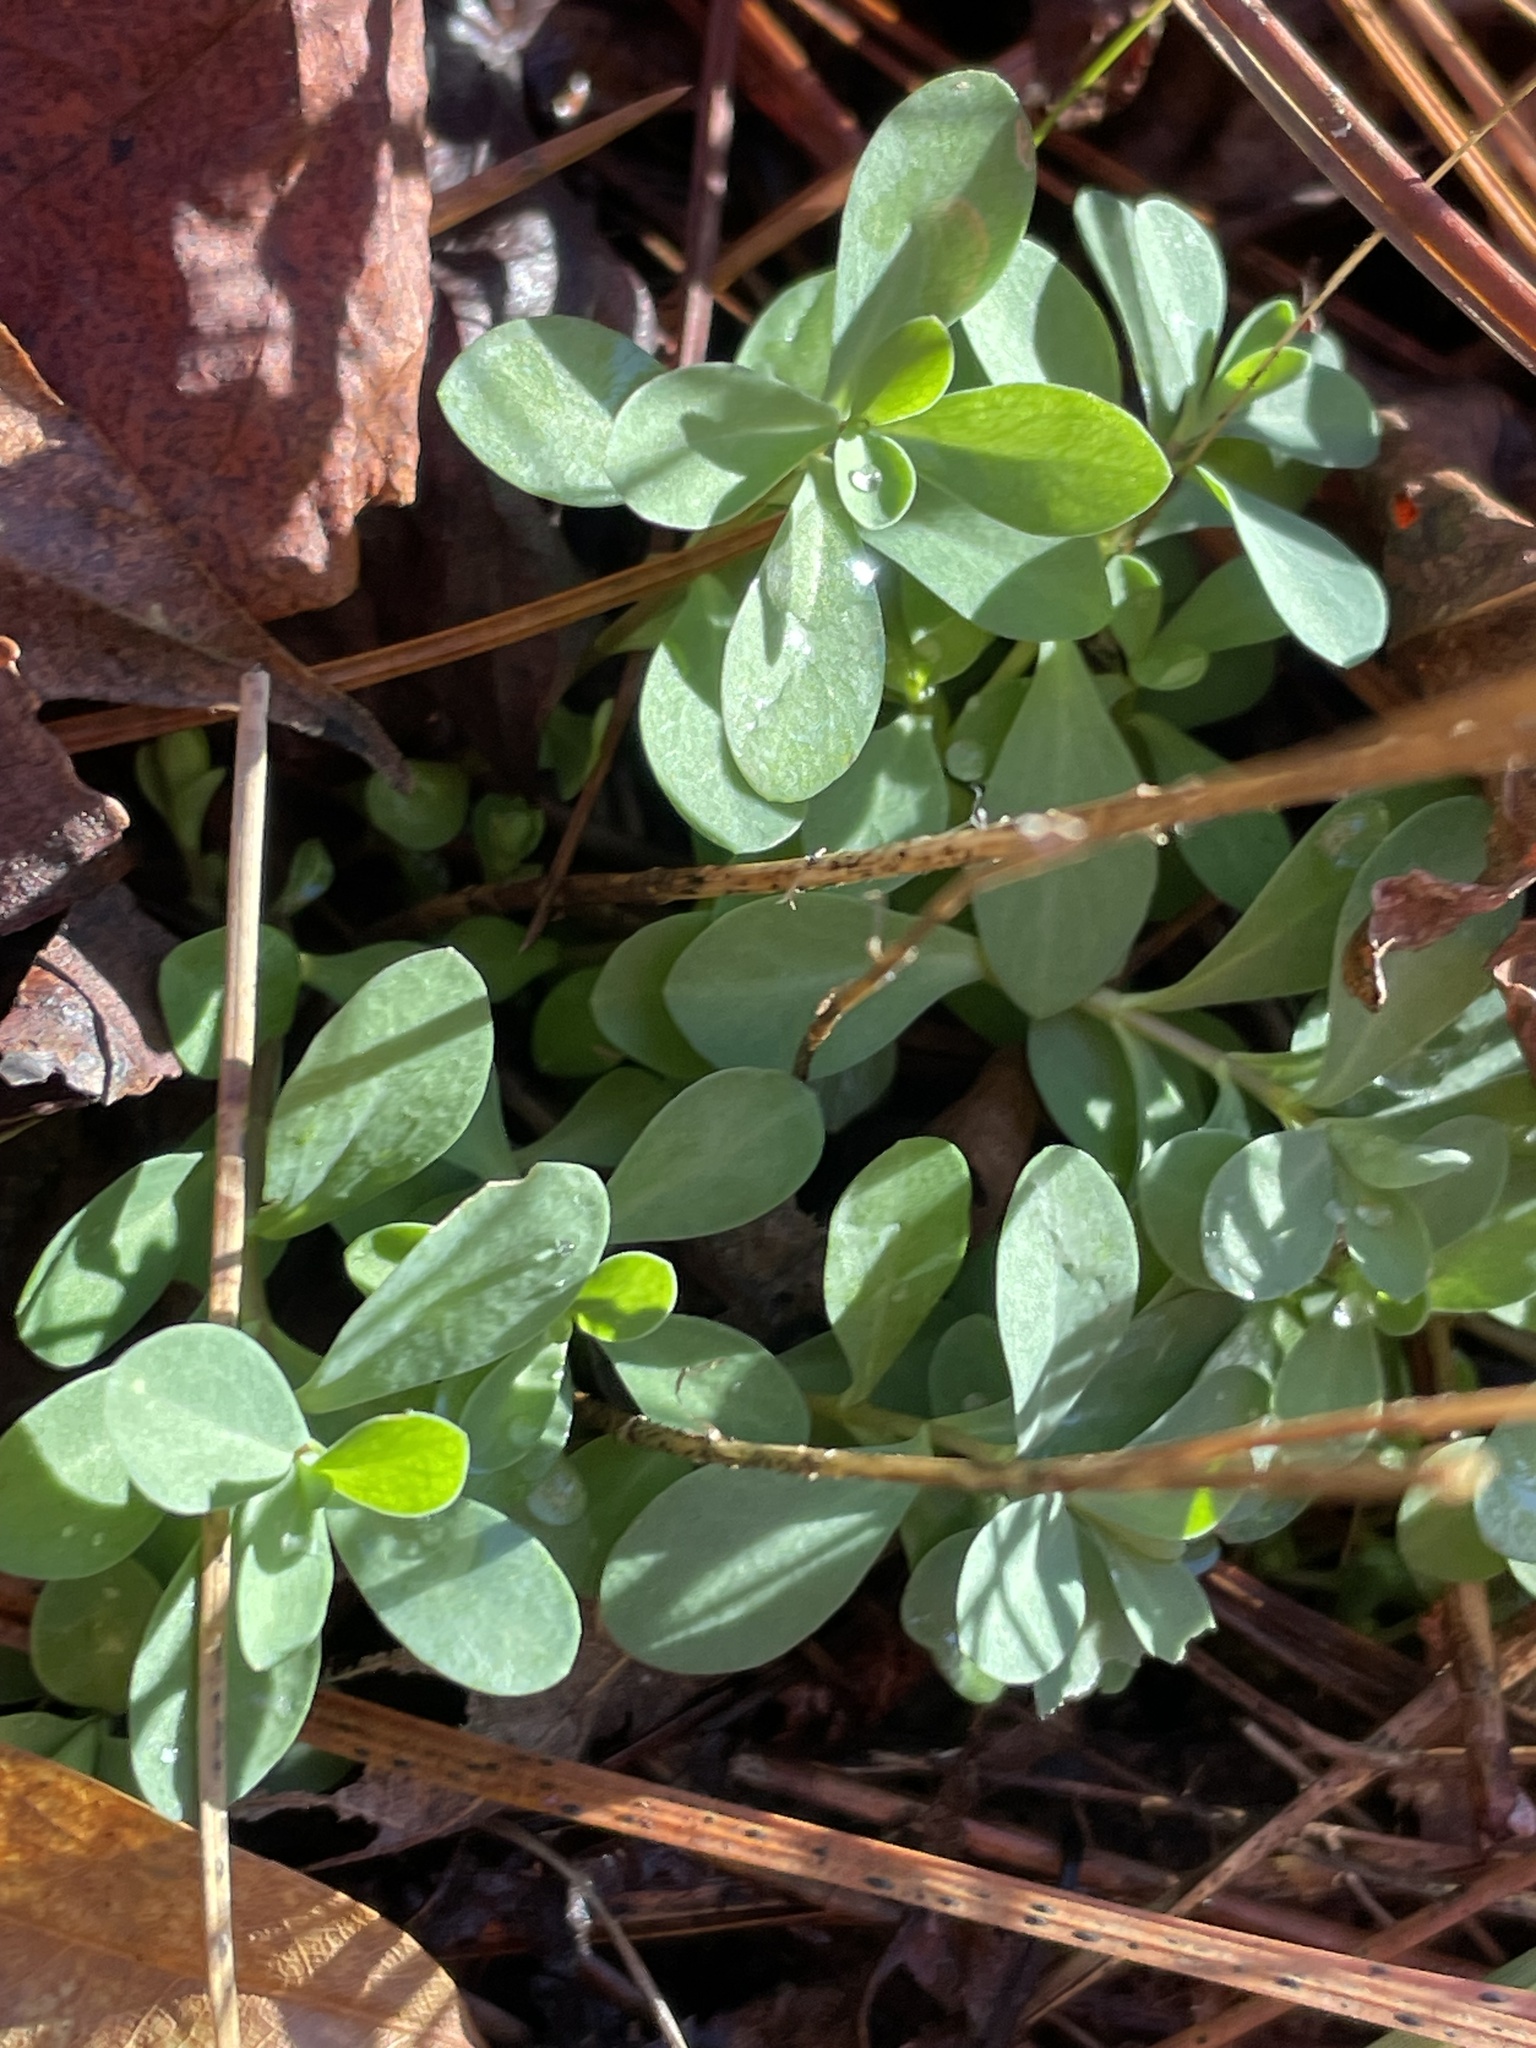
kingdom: Plantae
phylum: Tracheophyta
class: Magnoliopsida
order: Malpighiales
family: Hypericaceae
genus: Hypericum
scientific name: Hypericum hypericoides
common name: St. andrew's cross
